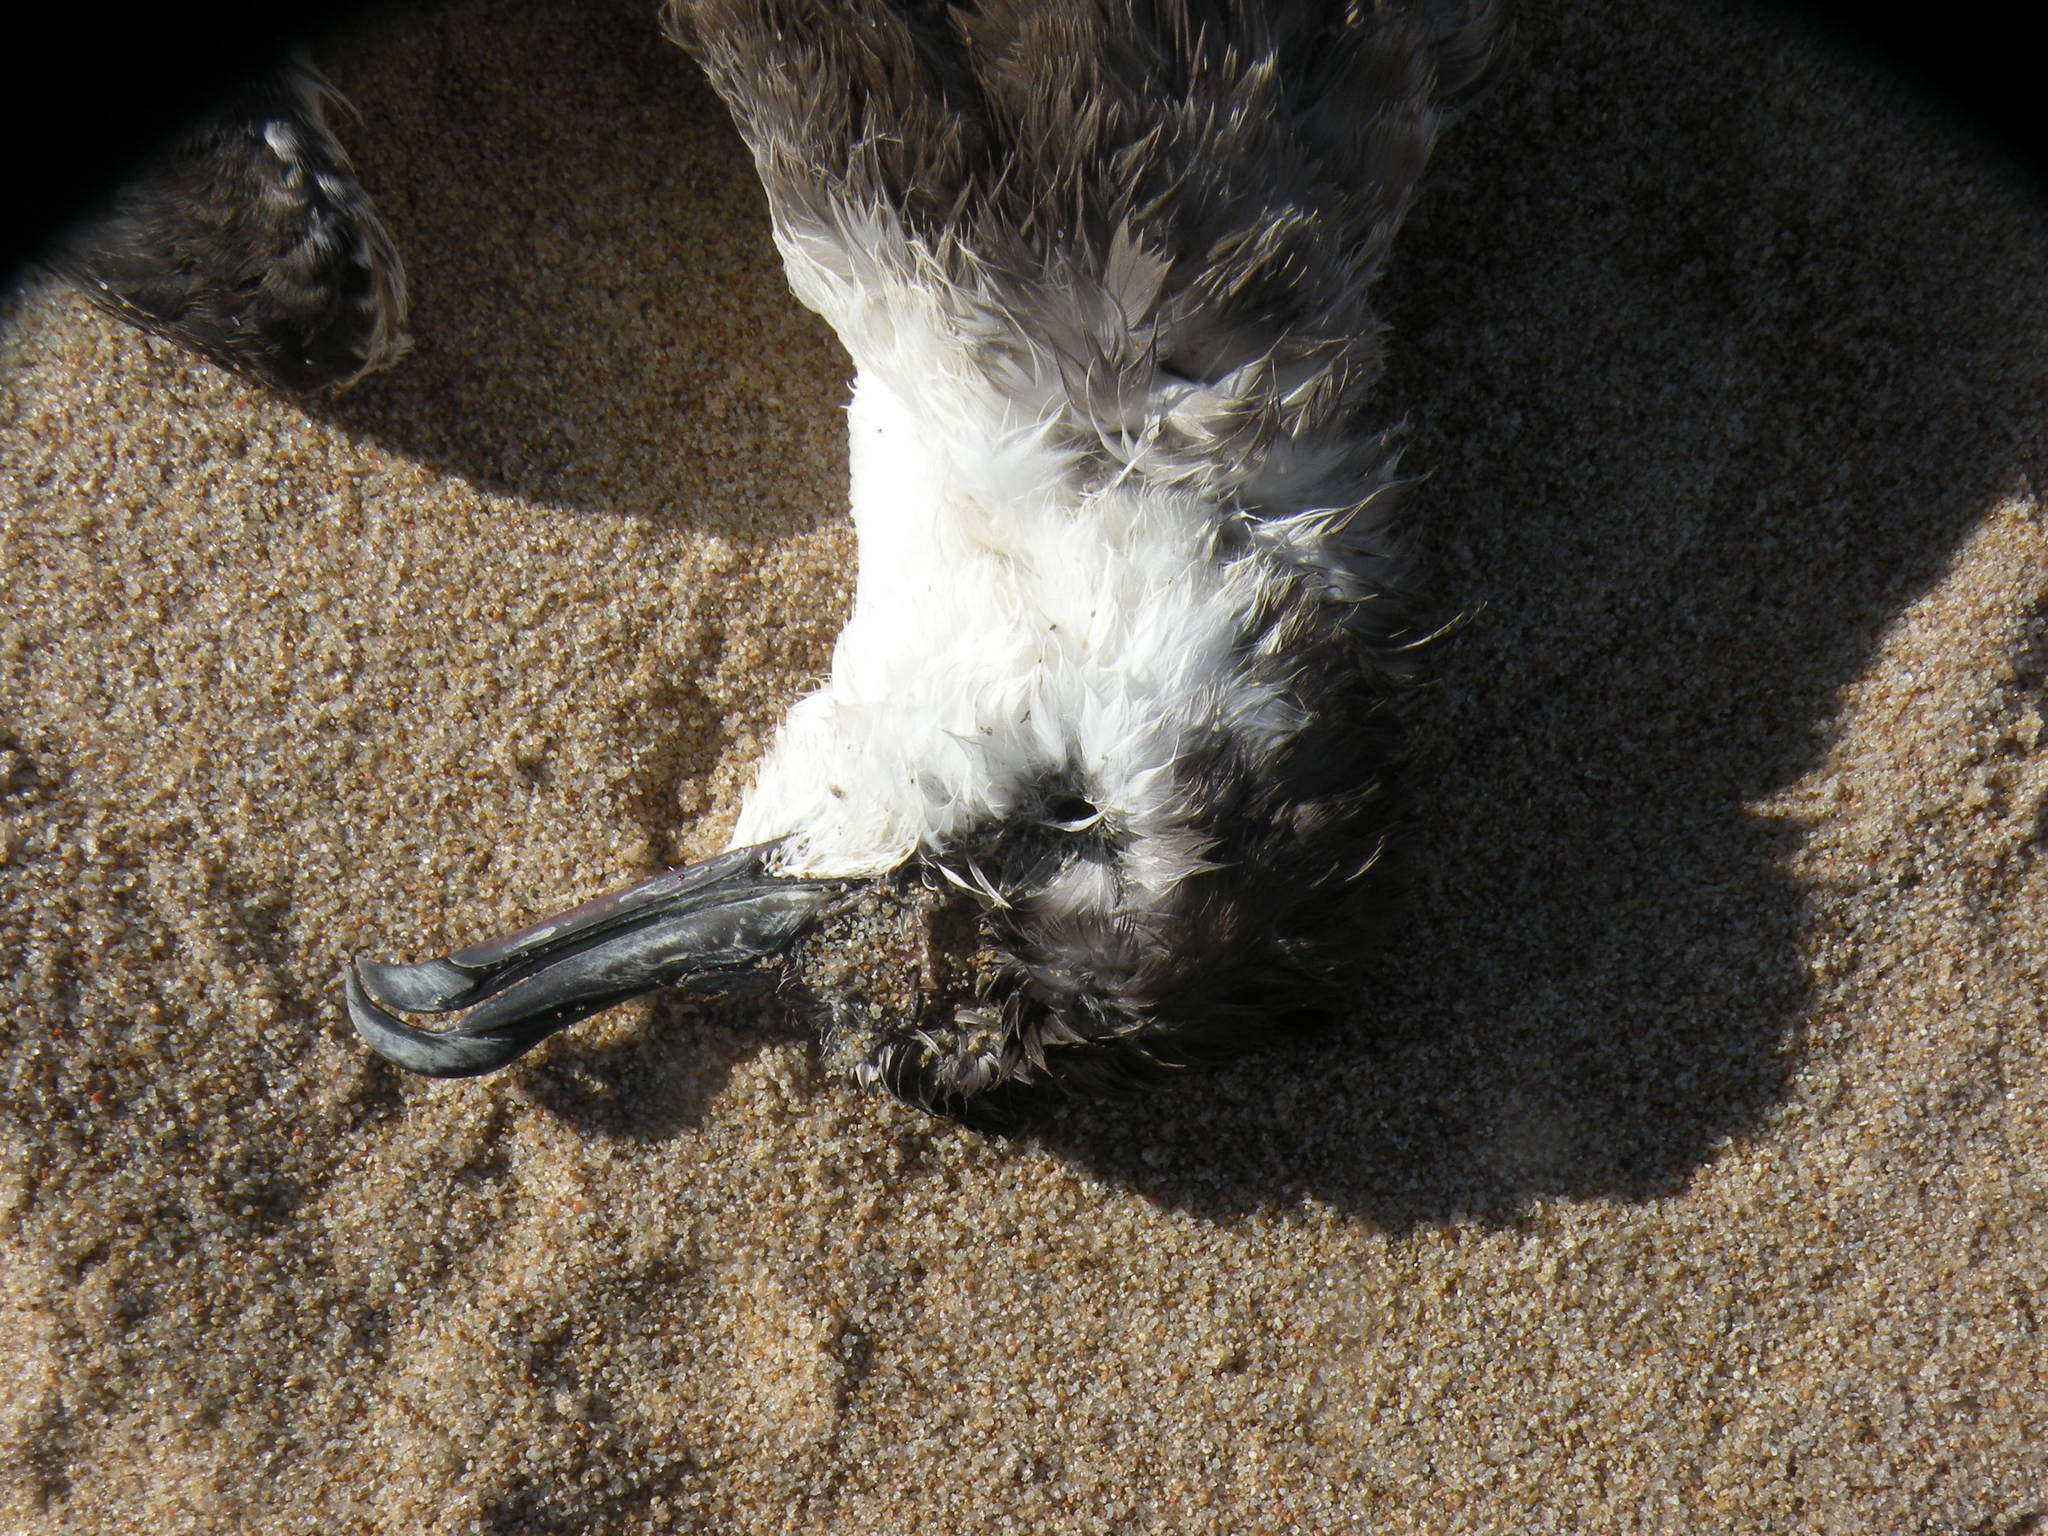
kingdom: Animalia
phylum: Chordata
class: Aves
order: Procellariiformes
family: Procellariidae
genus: Puffinus
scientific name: Puffinus gravis
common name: Great shearwater
